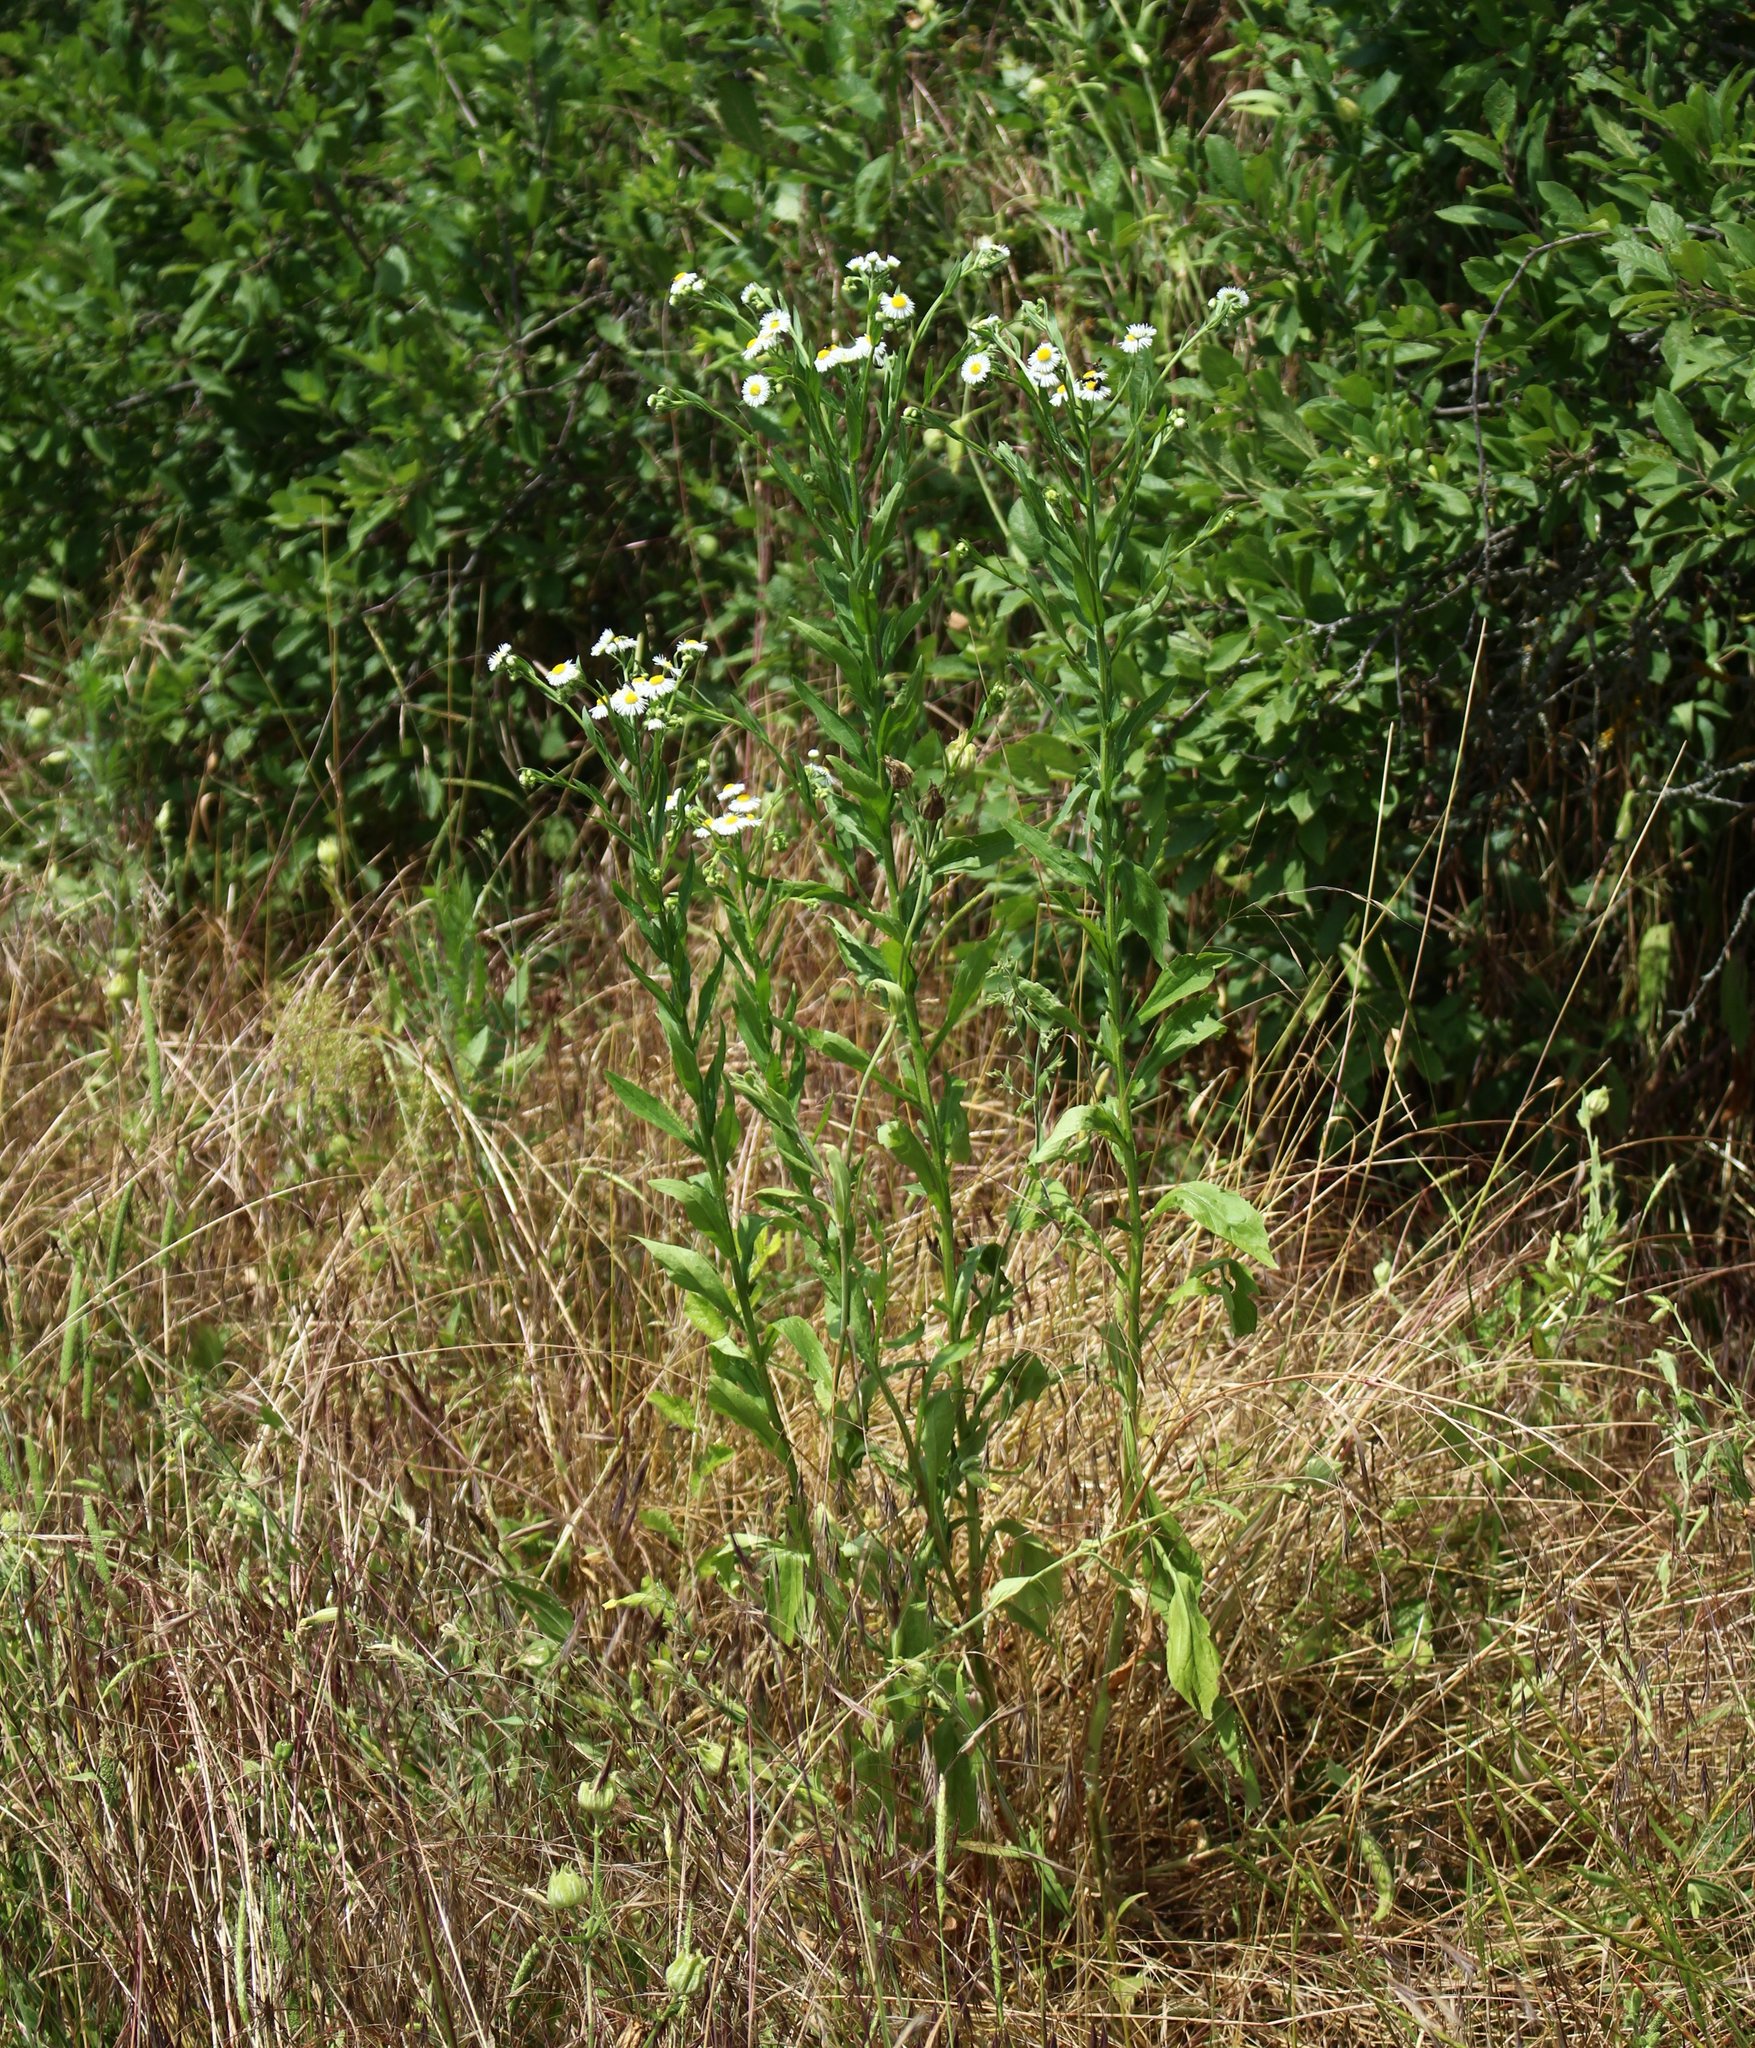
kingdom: Plantae
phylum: Tracheophyta
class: Magnoliopsida
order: Asterales
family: Asteraceae
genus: Erigeron
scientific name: Erigeron annuus
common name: Tall fleabane
